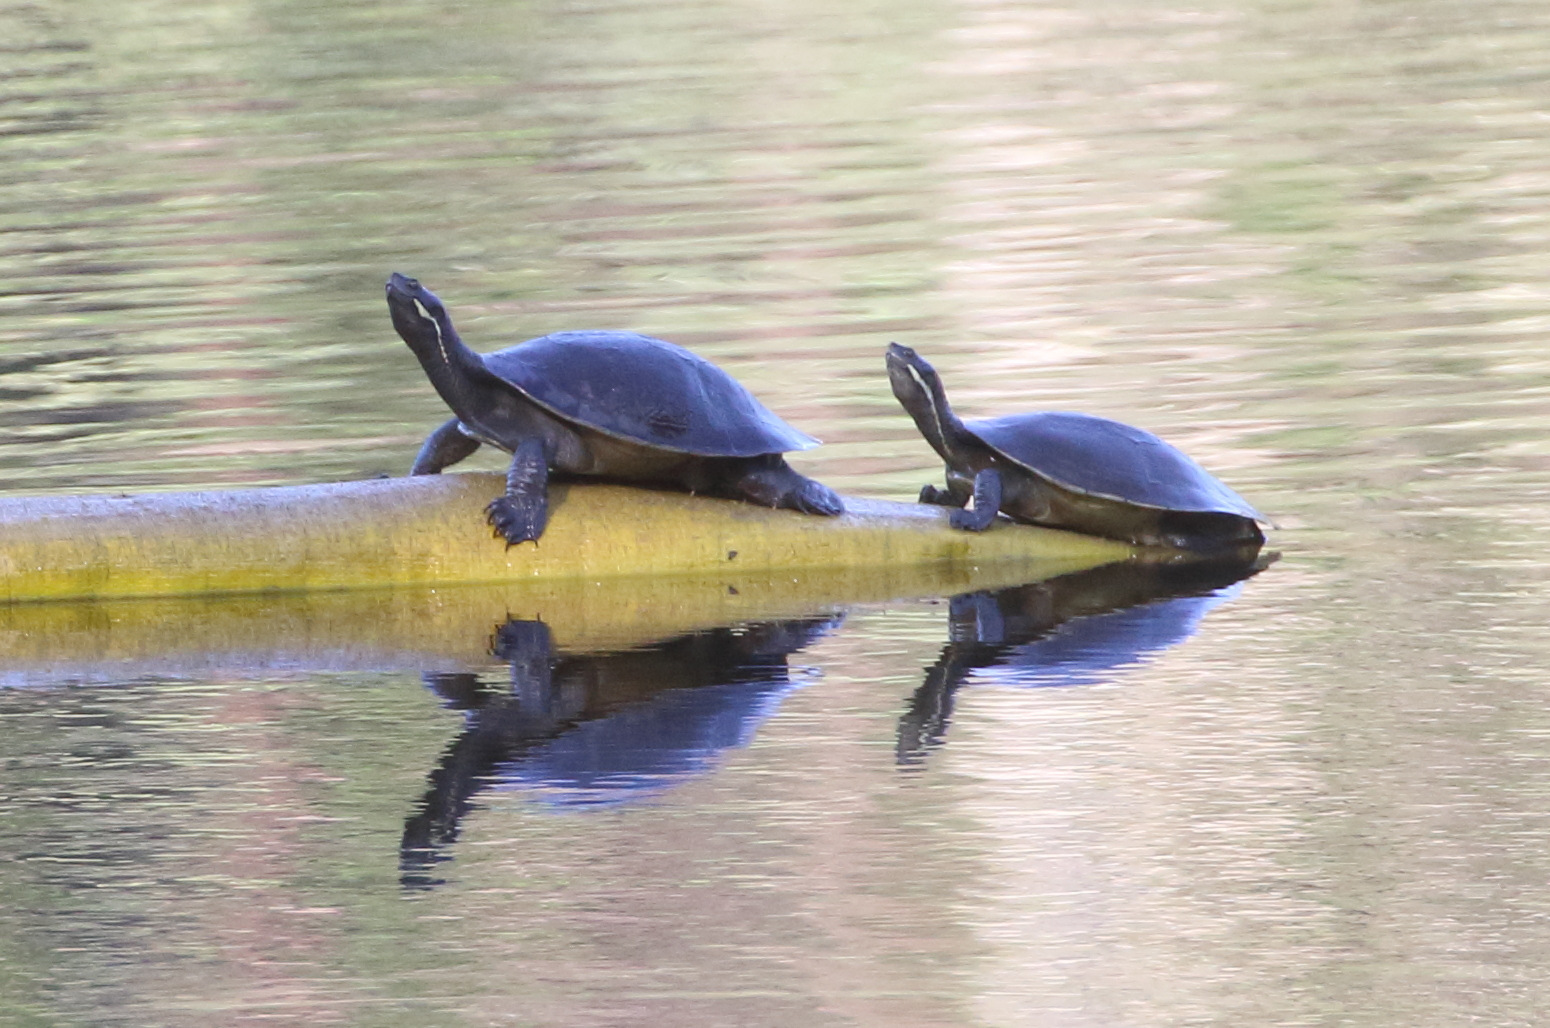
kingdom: Animalia
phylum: Chordata
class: Testudines
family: Chelidae
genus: Emydura
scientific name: Emydura macquarii
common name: Murray river turtle
